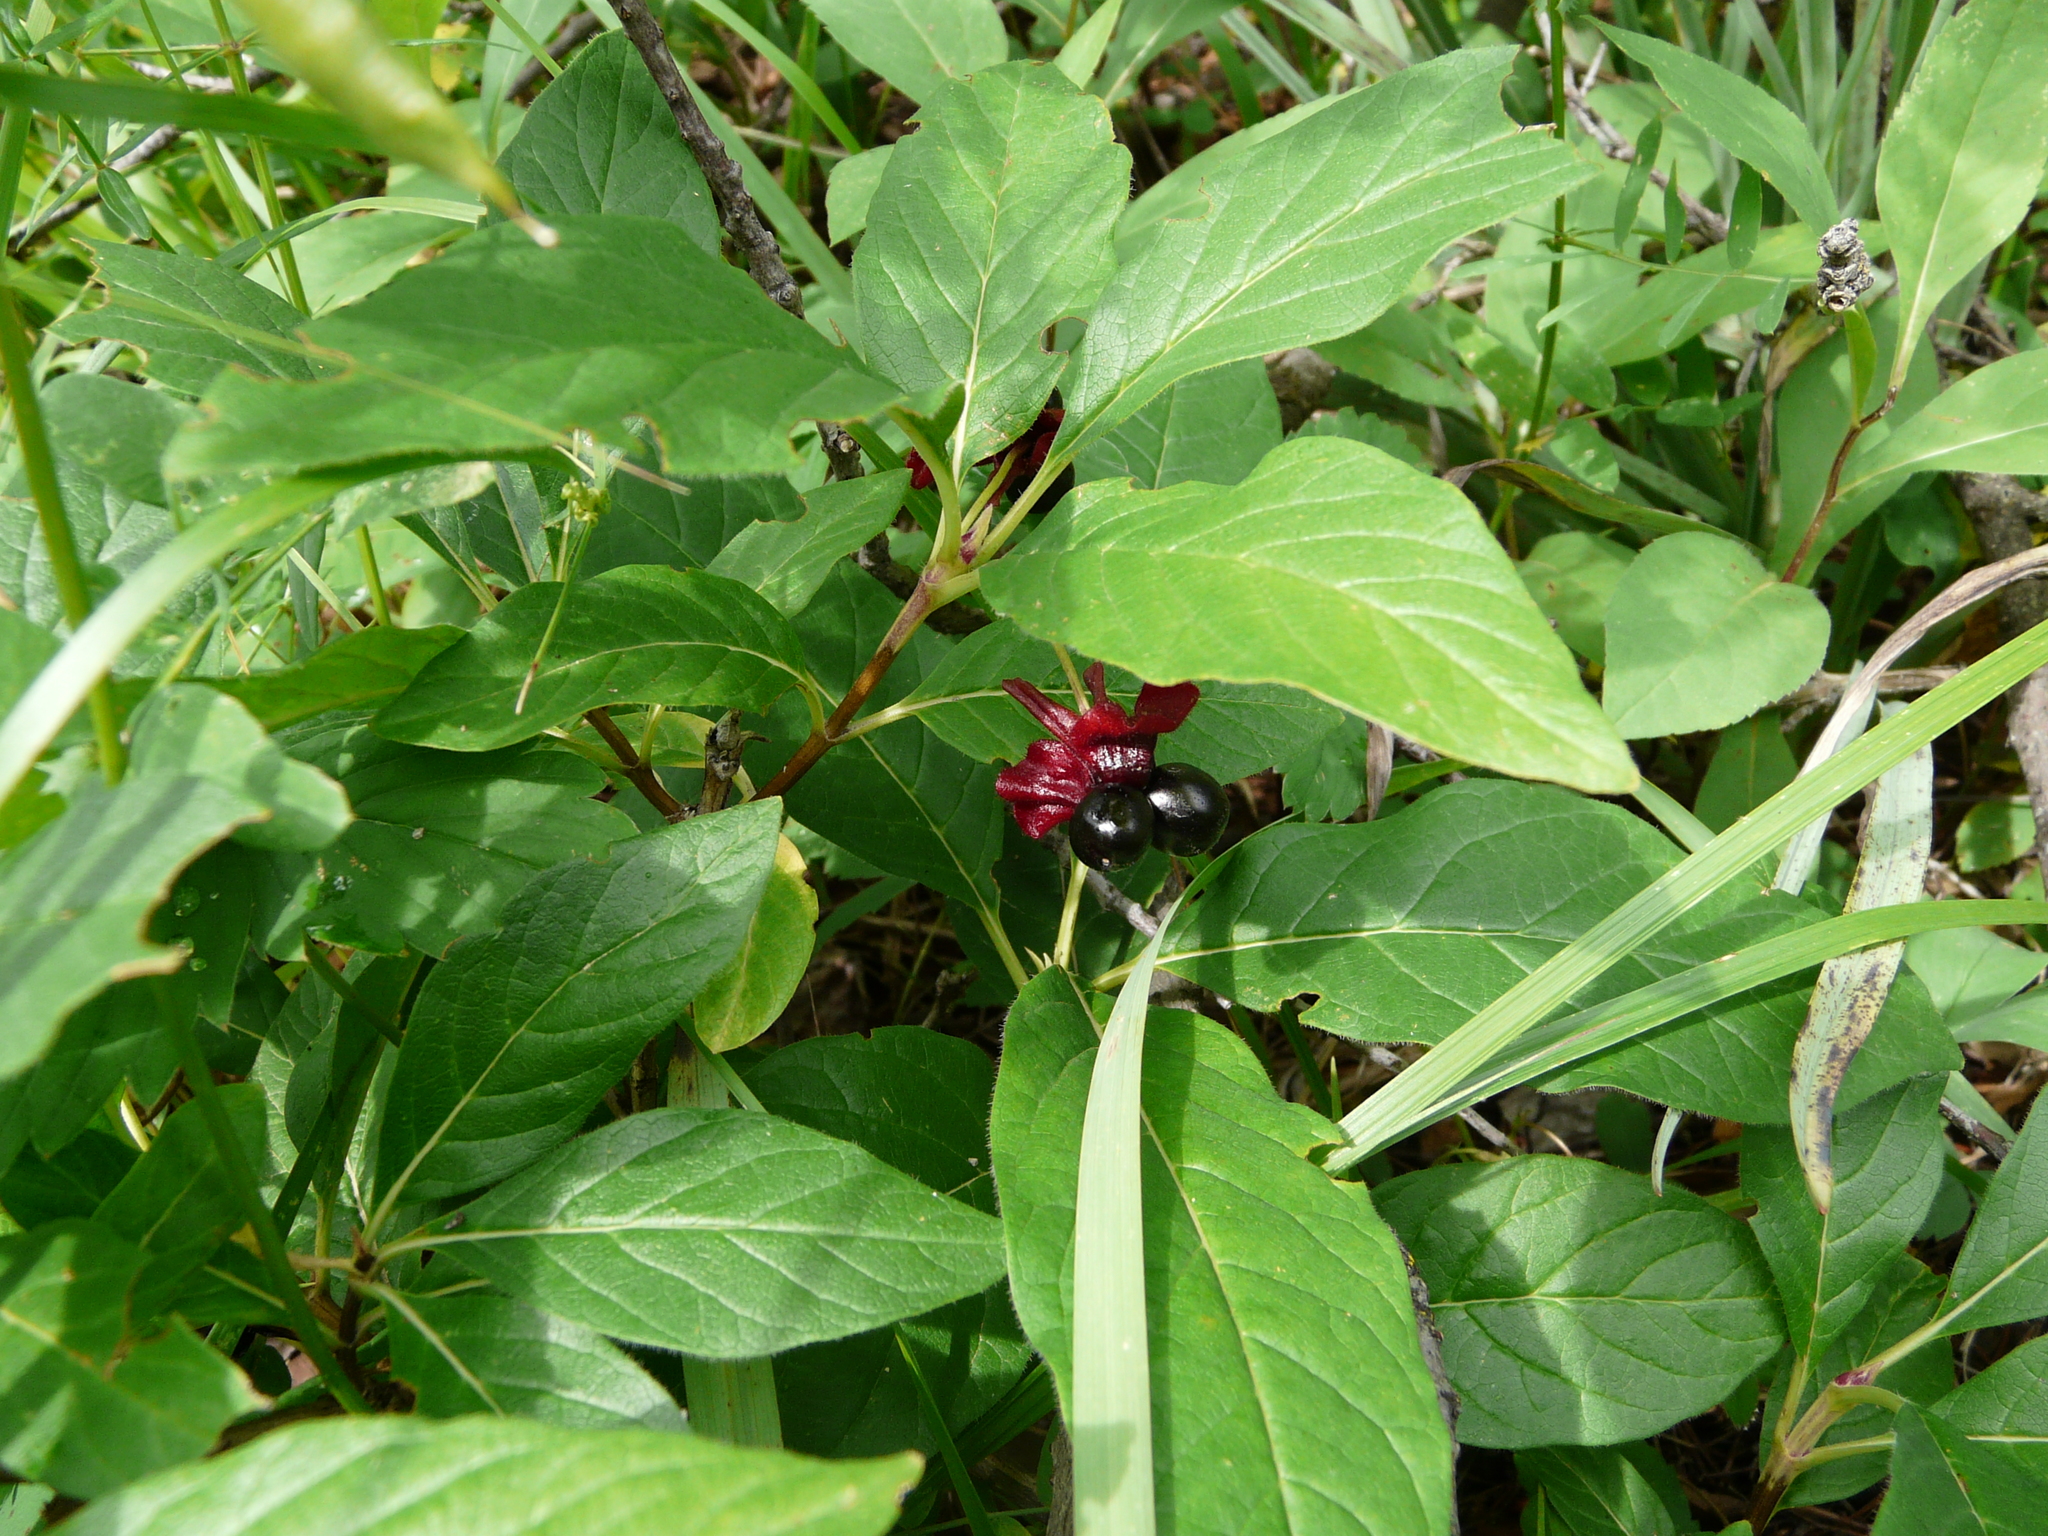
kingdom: Plantae
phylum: Tracheophyta
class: Magnoliopsida
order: Dipsacales
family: Caprifoliaceae
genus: Lonicera
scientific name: Lonicera involucrata
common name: Californian honeysuckle
